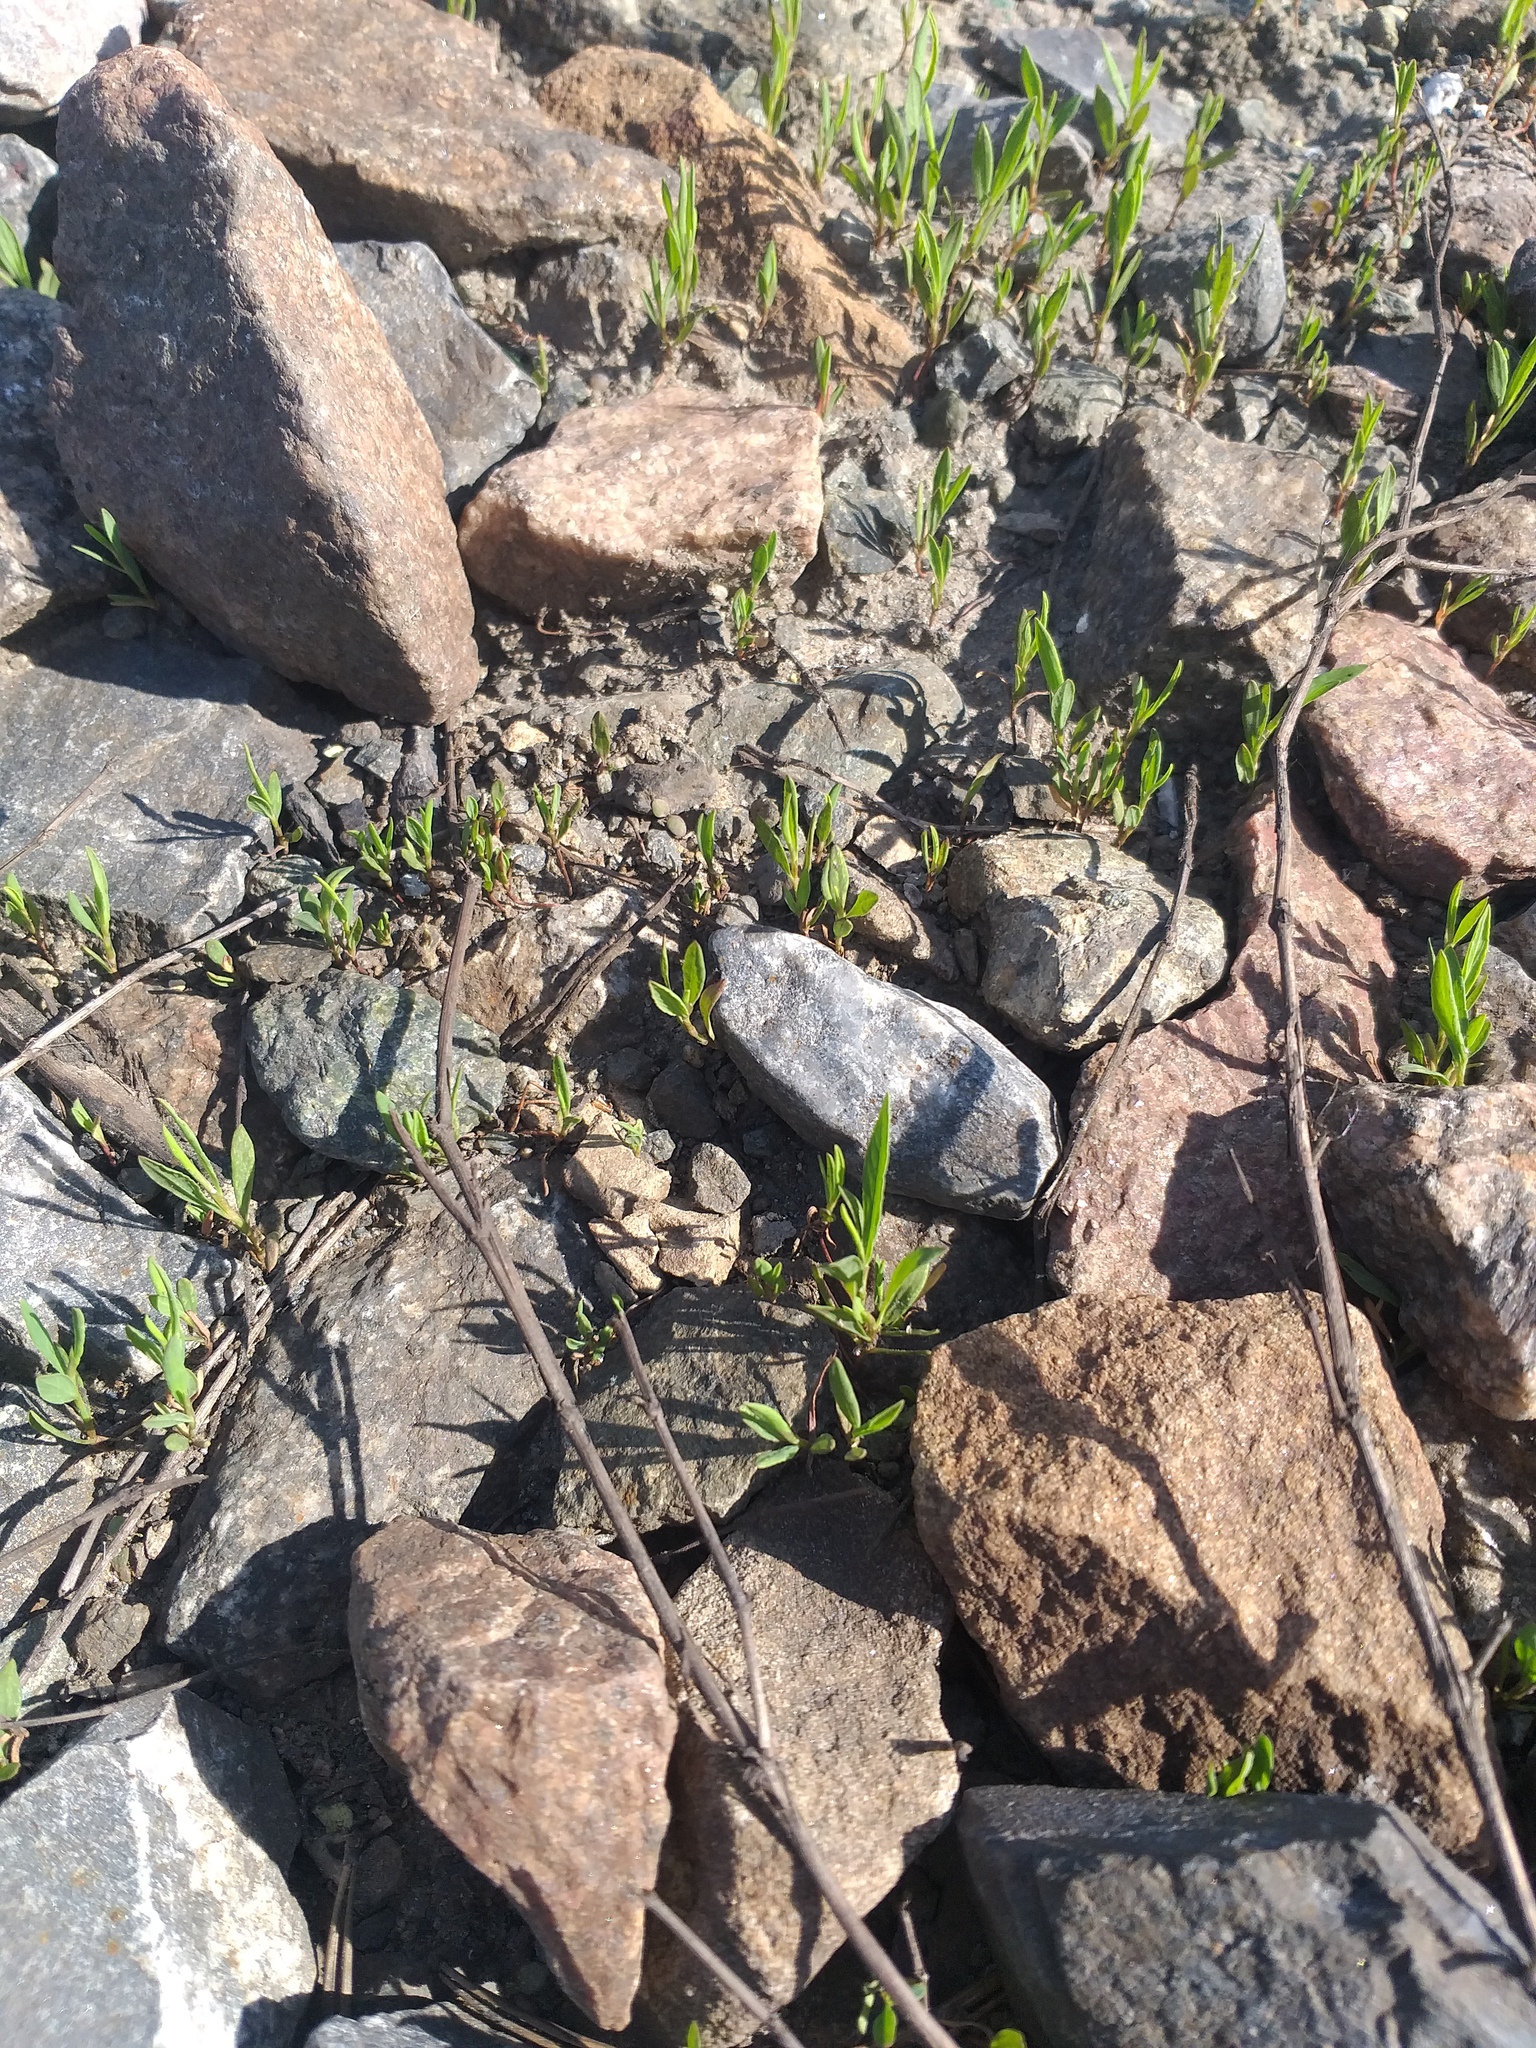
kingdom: Plantae
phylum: Tracheophyta
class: Magnoliopsida
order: Caryophyllales
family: Polygonaceae
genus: Polygonum
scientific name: Polygonum
